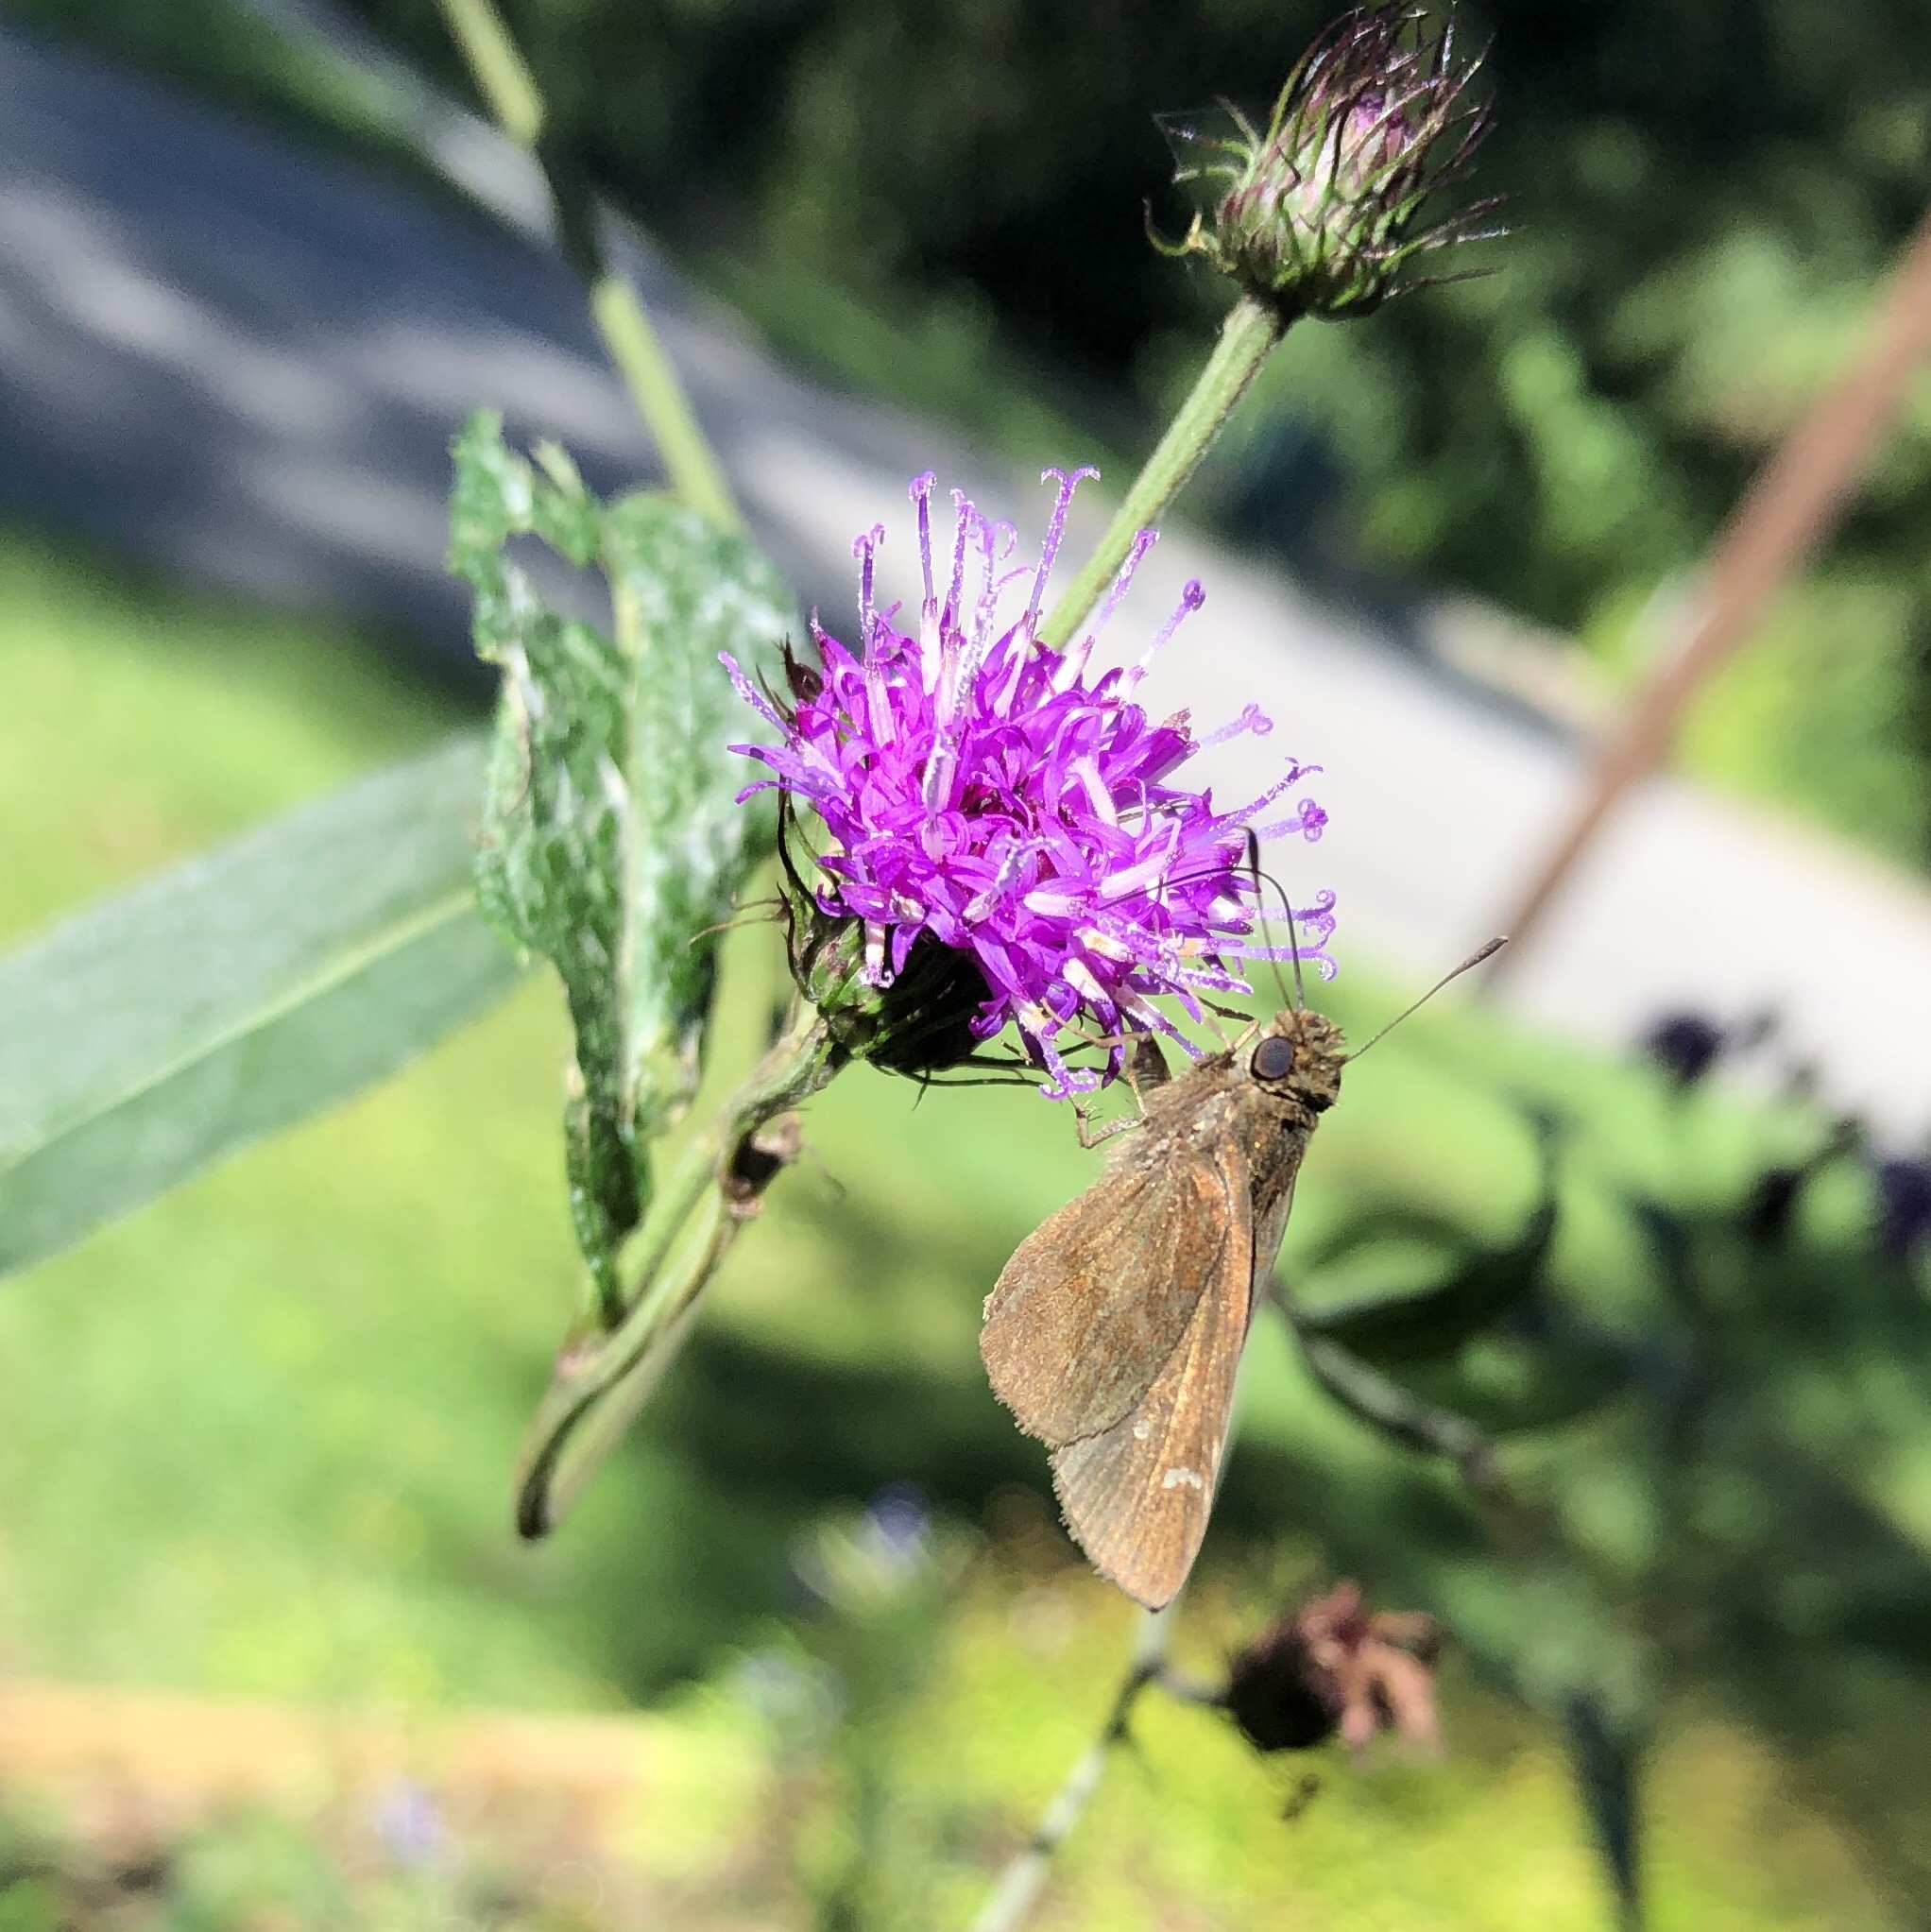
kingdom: Animalia
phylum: Arthropoda
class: Insecta
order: Lepidoptera
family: Hesperiidae
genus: Lerema
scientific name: Lerema accius
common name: Clouded skipper
